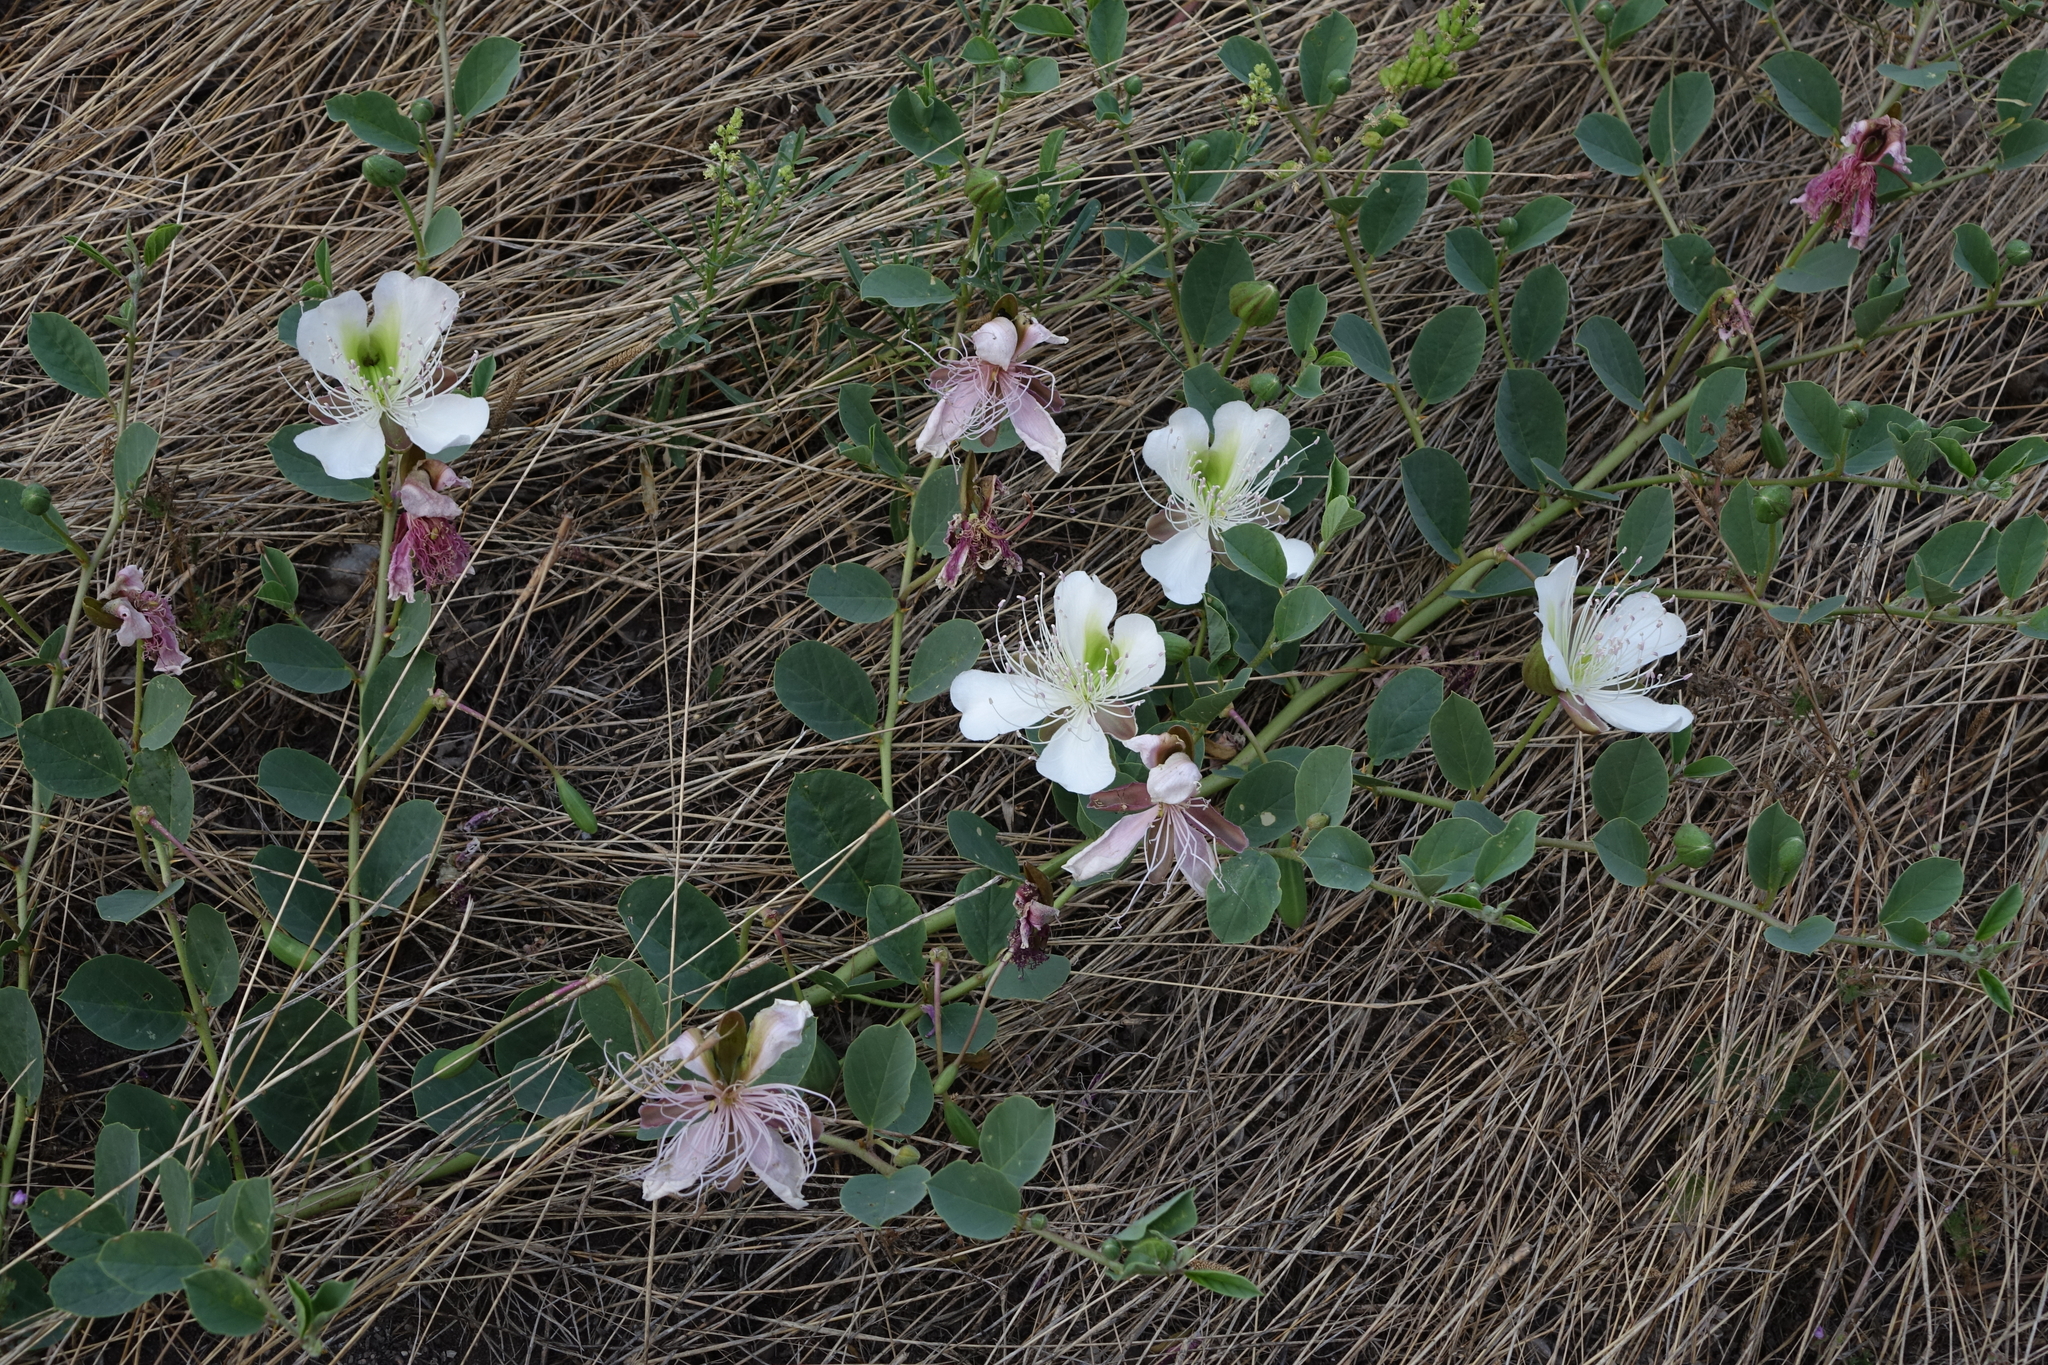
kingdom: Plantae
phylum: Tracheophyta
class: Magnoliopsida
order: Brassicales
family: Capparaceae
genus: Capparis
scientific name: Capparis spinosa
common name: Caper
